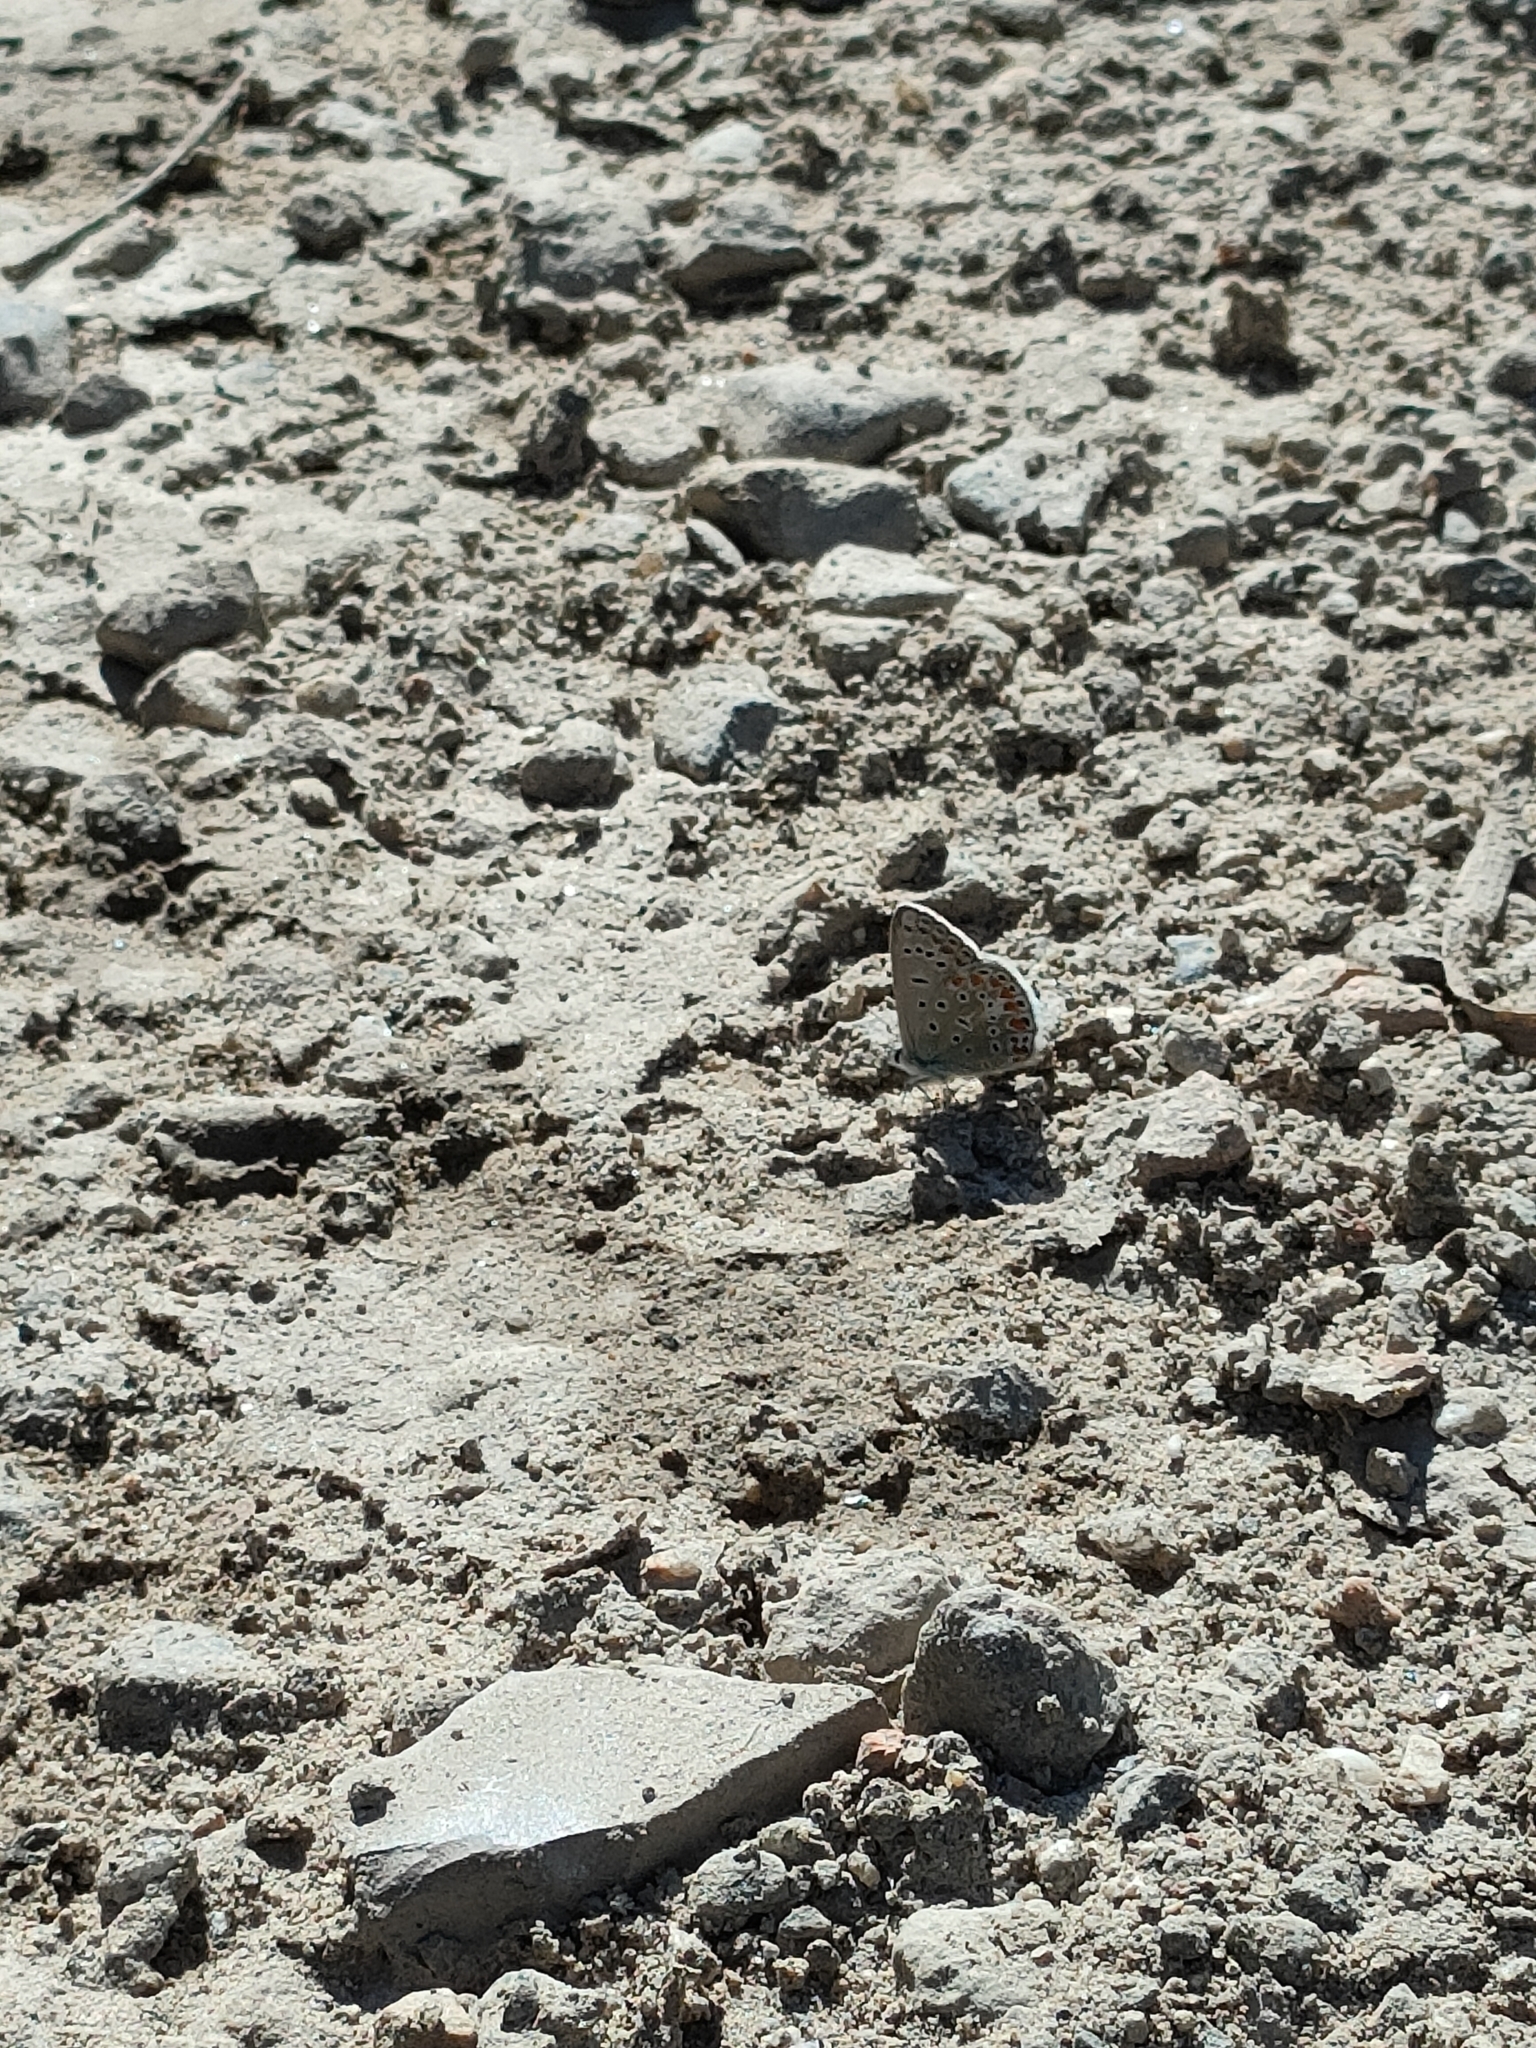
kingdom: Animalia
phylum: Arthropoda
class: Insecta
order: Lepidoptera
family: Lycaenidae
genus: Polyommatus
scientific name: Polyommatus icarus
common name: Common blue
